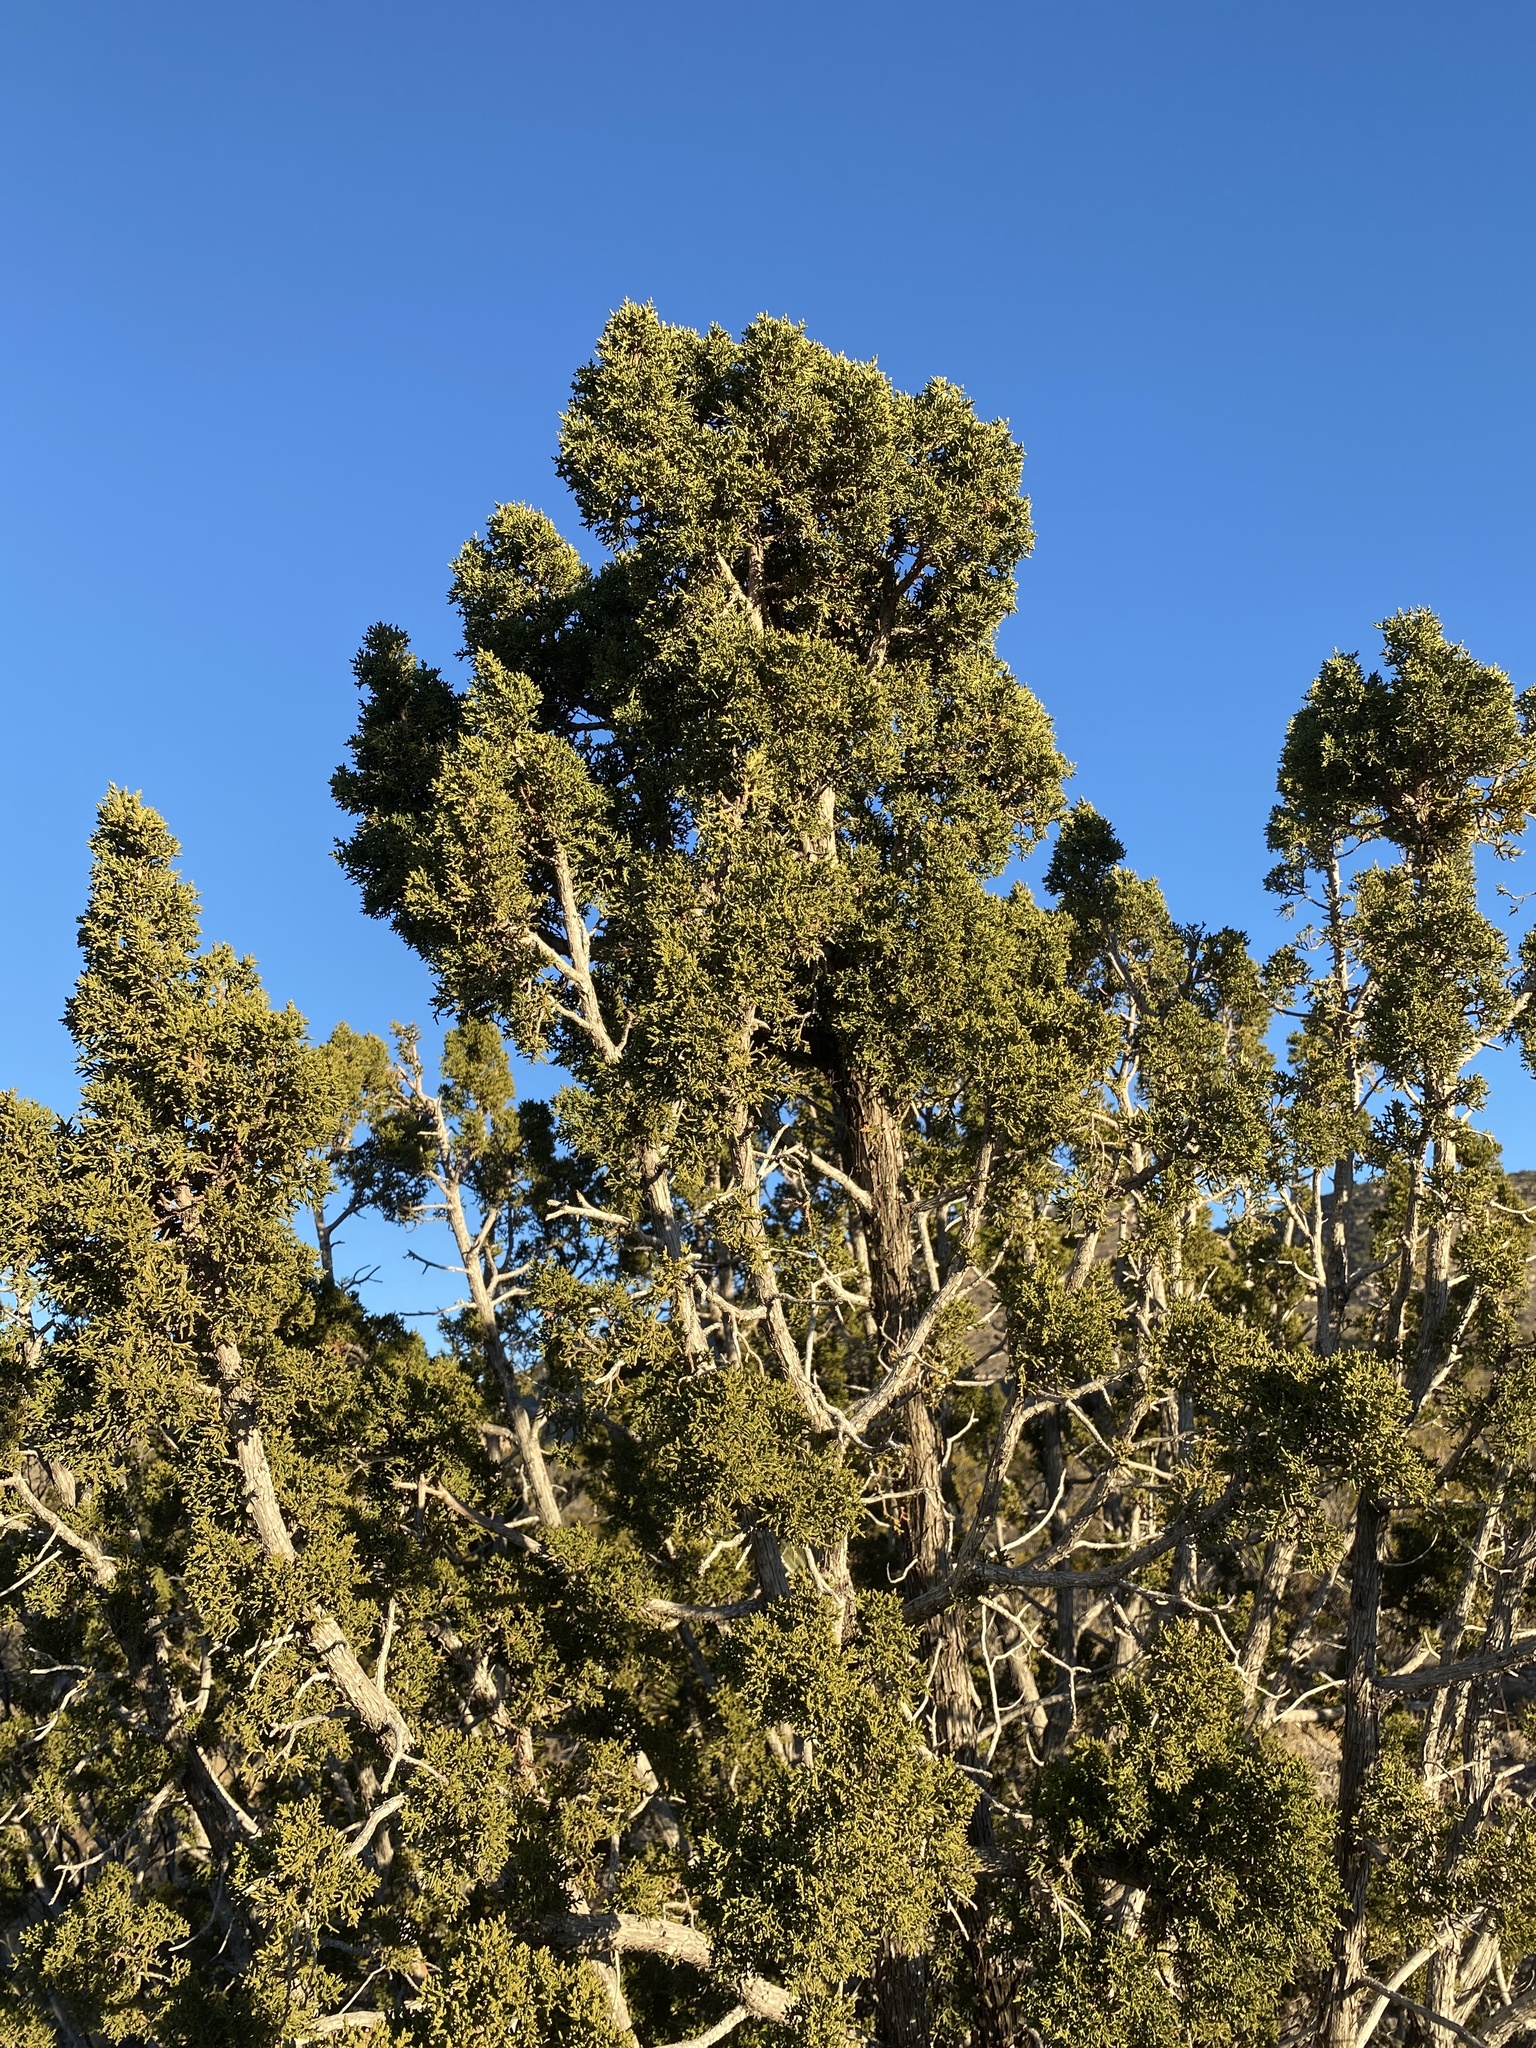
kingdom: Plantae
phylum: Tracheophyta
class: Pinopsida
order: Pinales
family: Cupressaceae
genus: Juniperus
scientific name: Juniperus monosperma
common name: One-seed juniper
